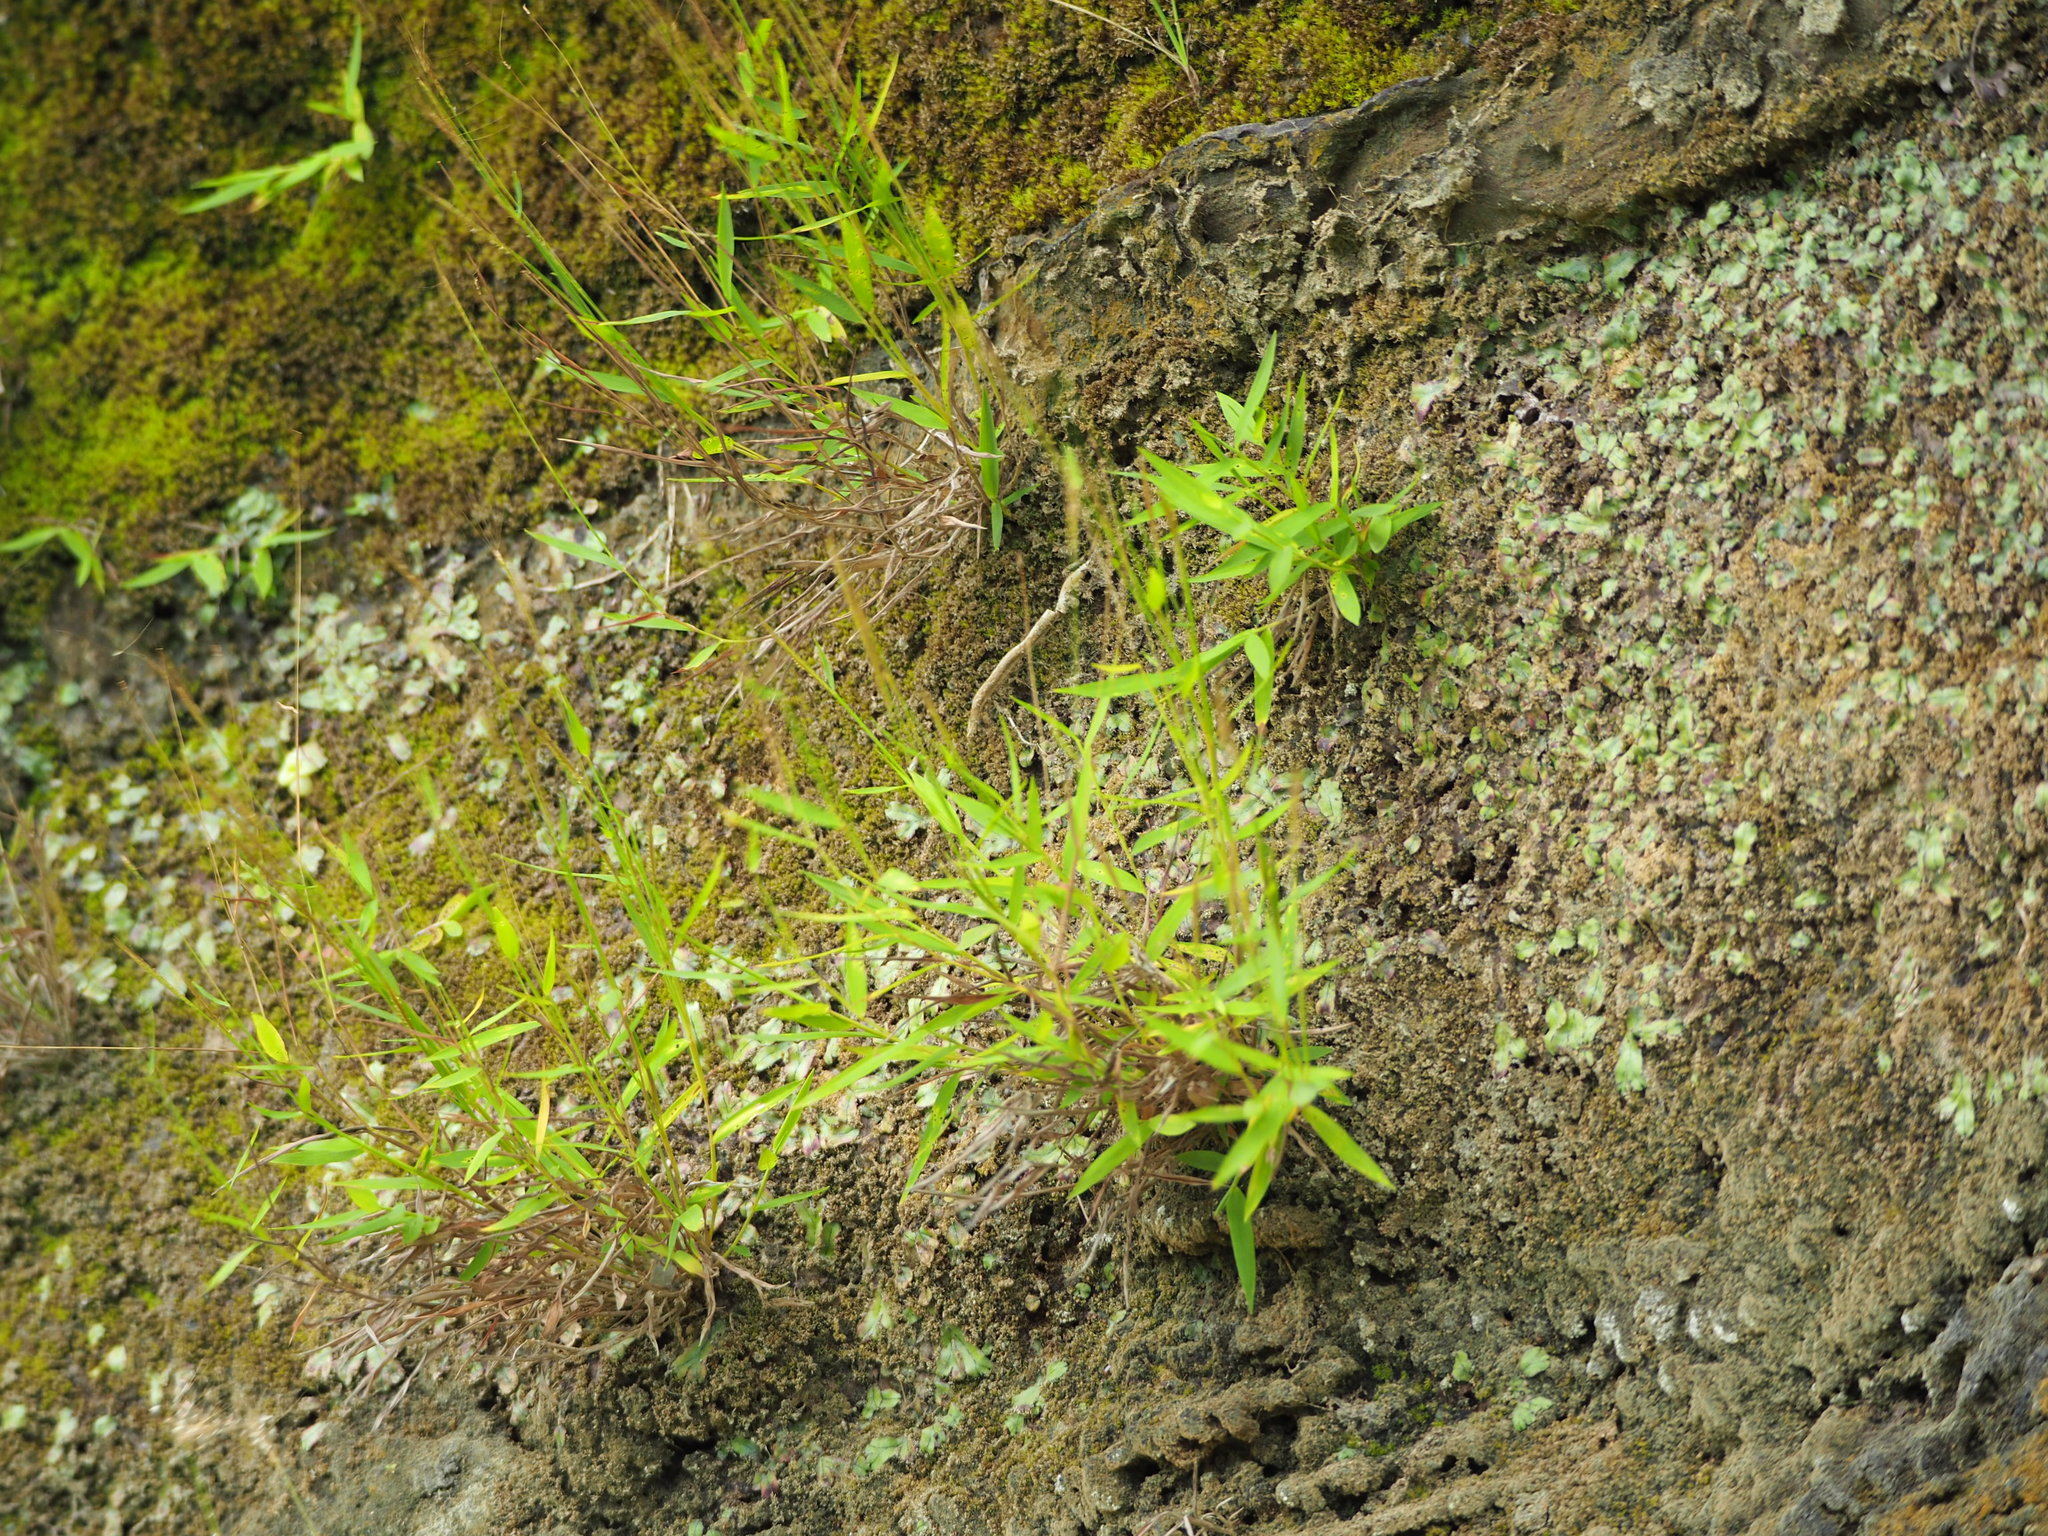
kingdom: Plantae
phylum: Tracheophyta
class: Liliopsida
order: Poales
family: Poaceae
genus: Pogonatherum
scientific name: Pogonatherum crinitum
